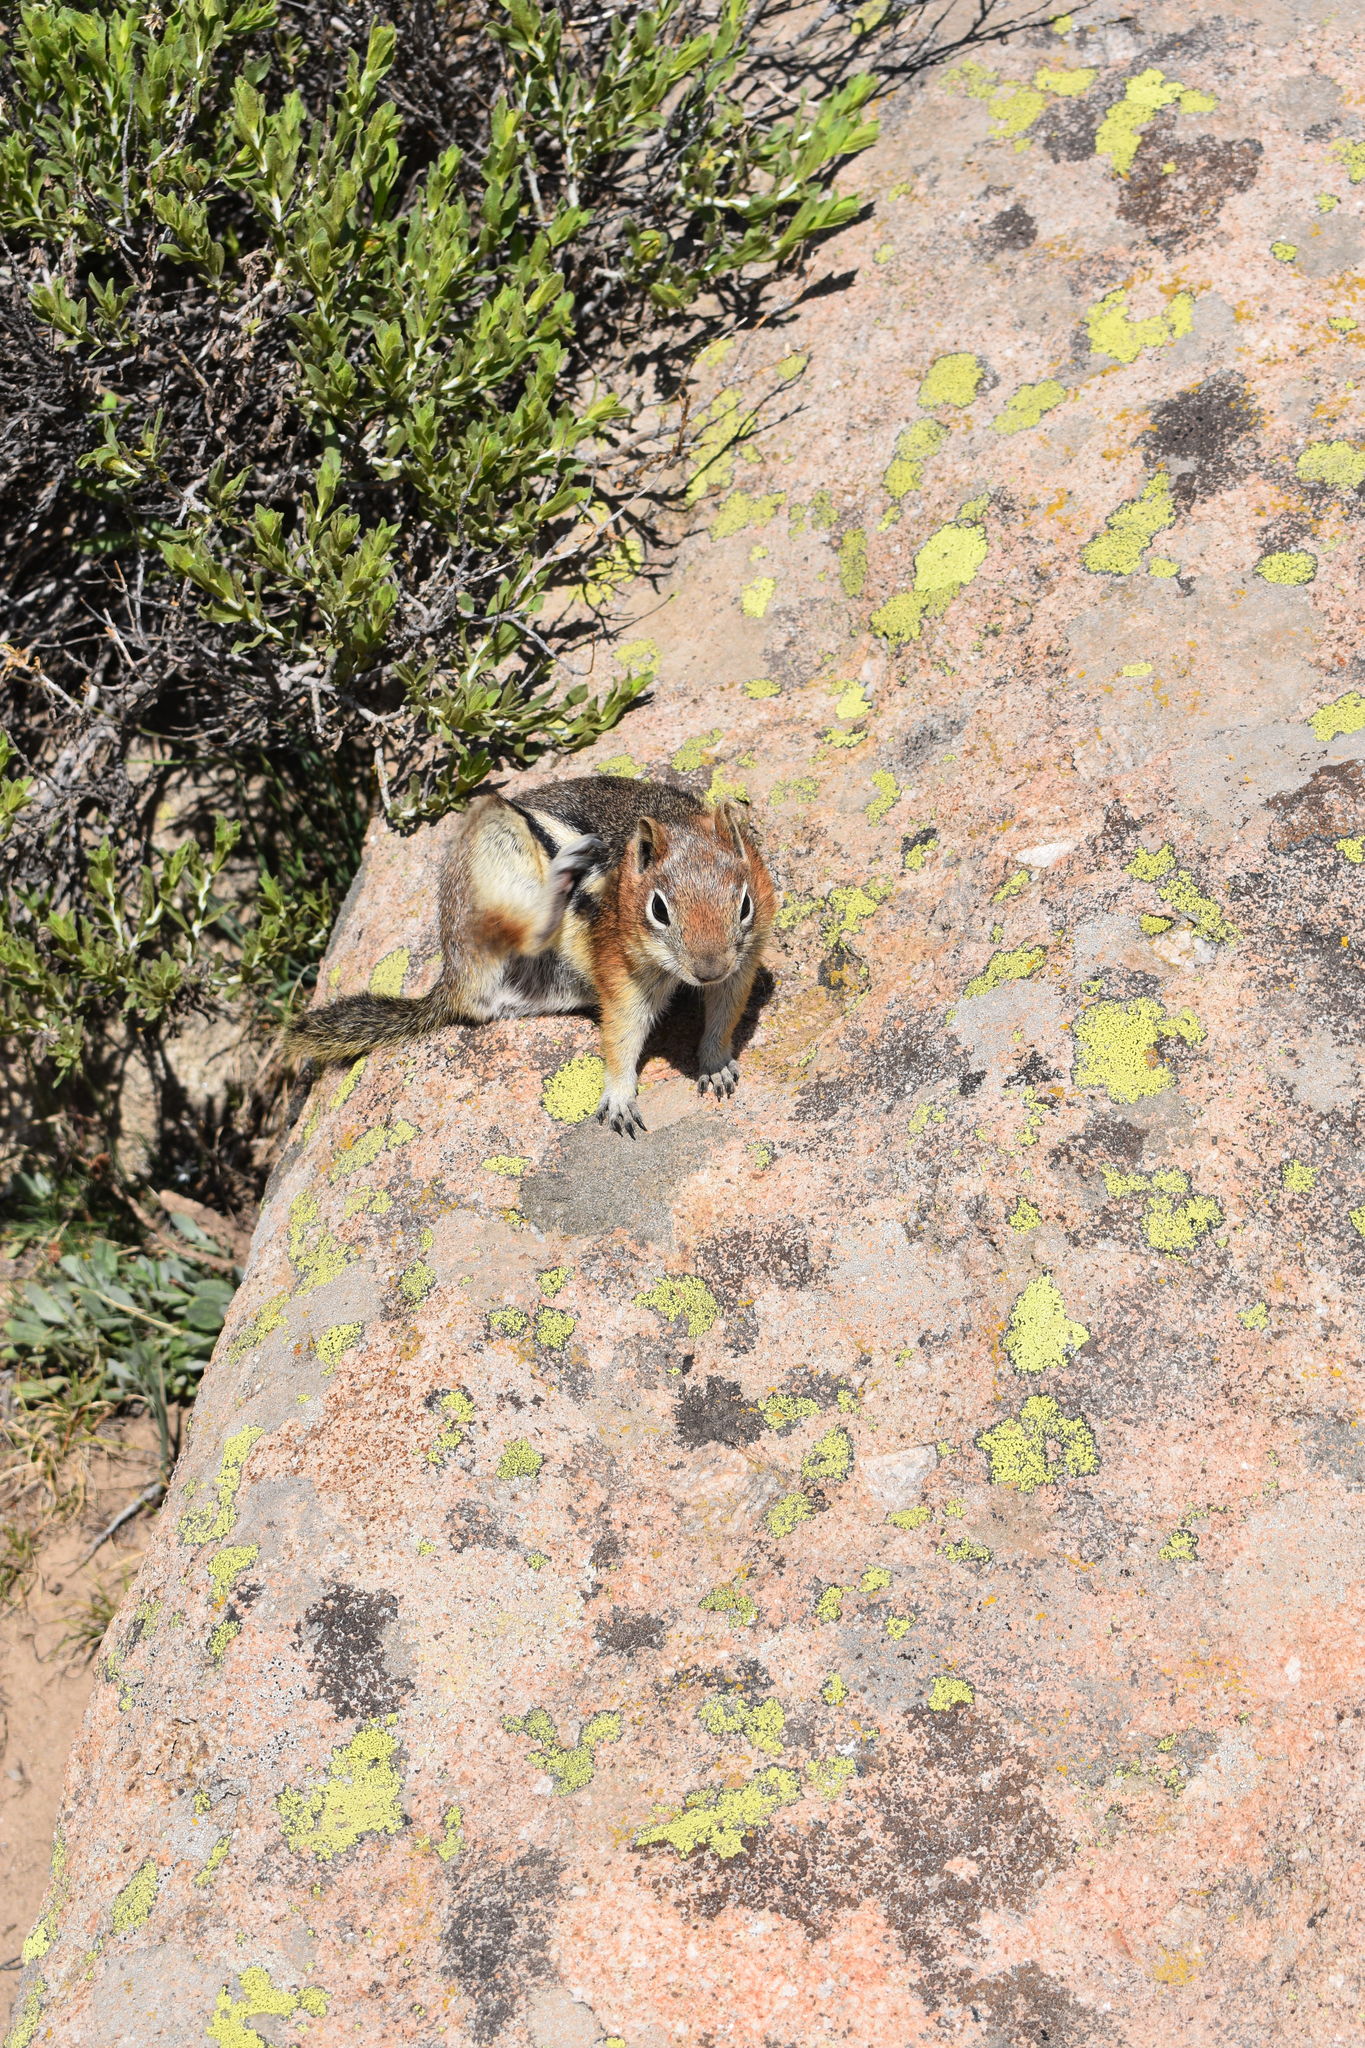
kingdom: Animalia
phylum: Chordata
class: Mammalia
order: Rodentia
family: Sciuridae
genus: Callospermophilus
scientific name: Callospermophilus lateralis
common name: Golden-mantled ground squirrel
